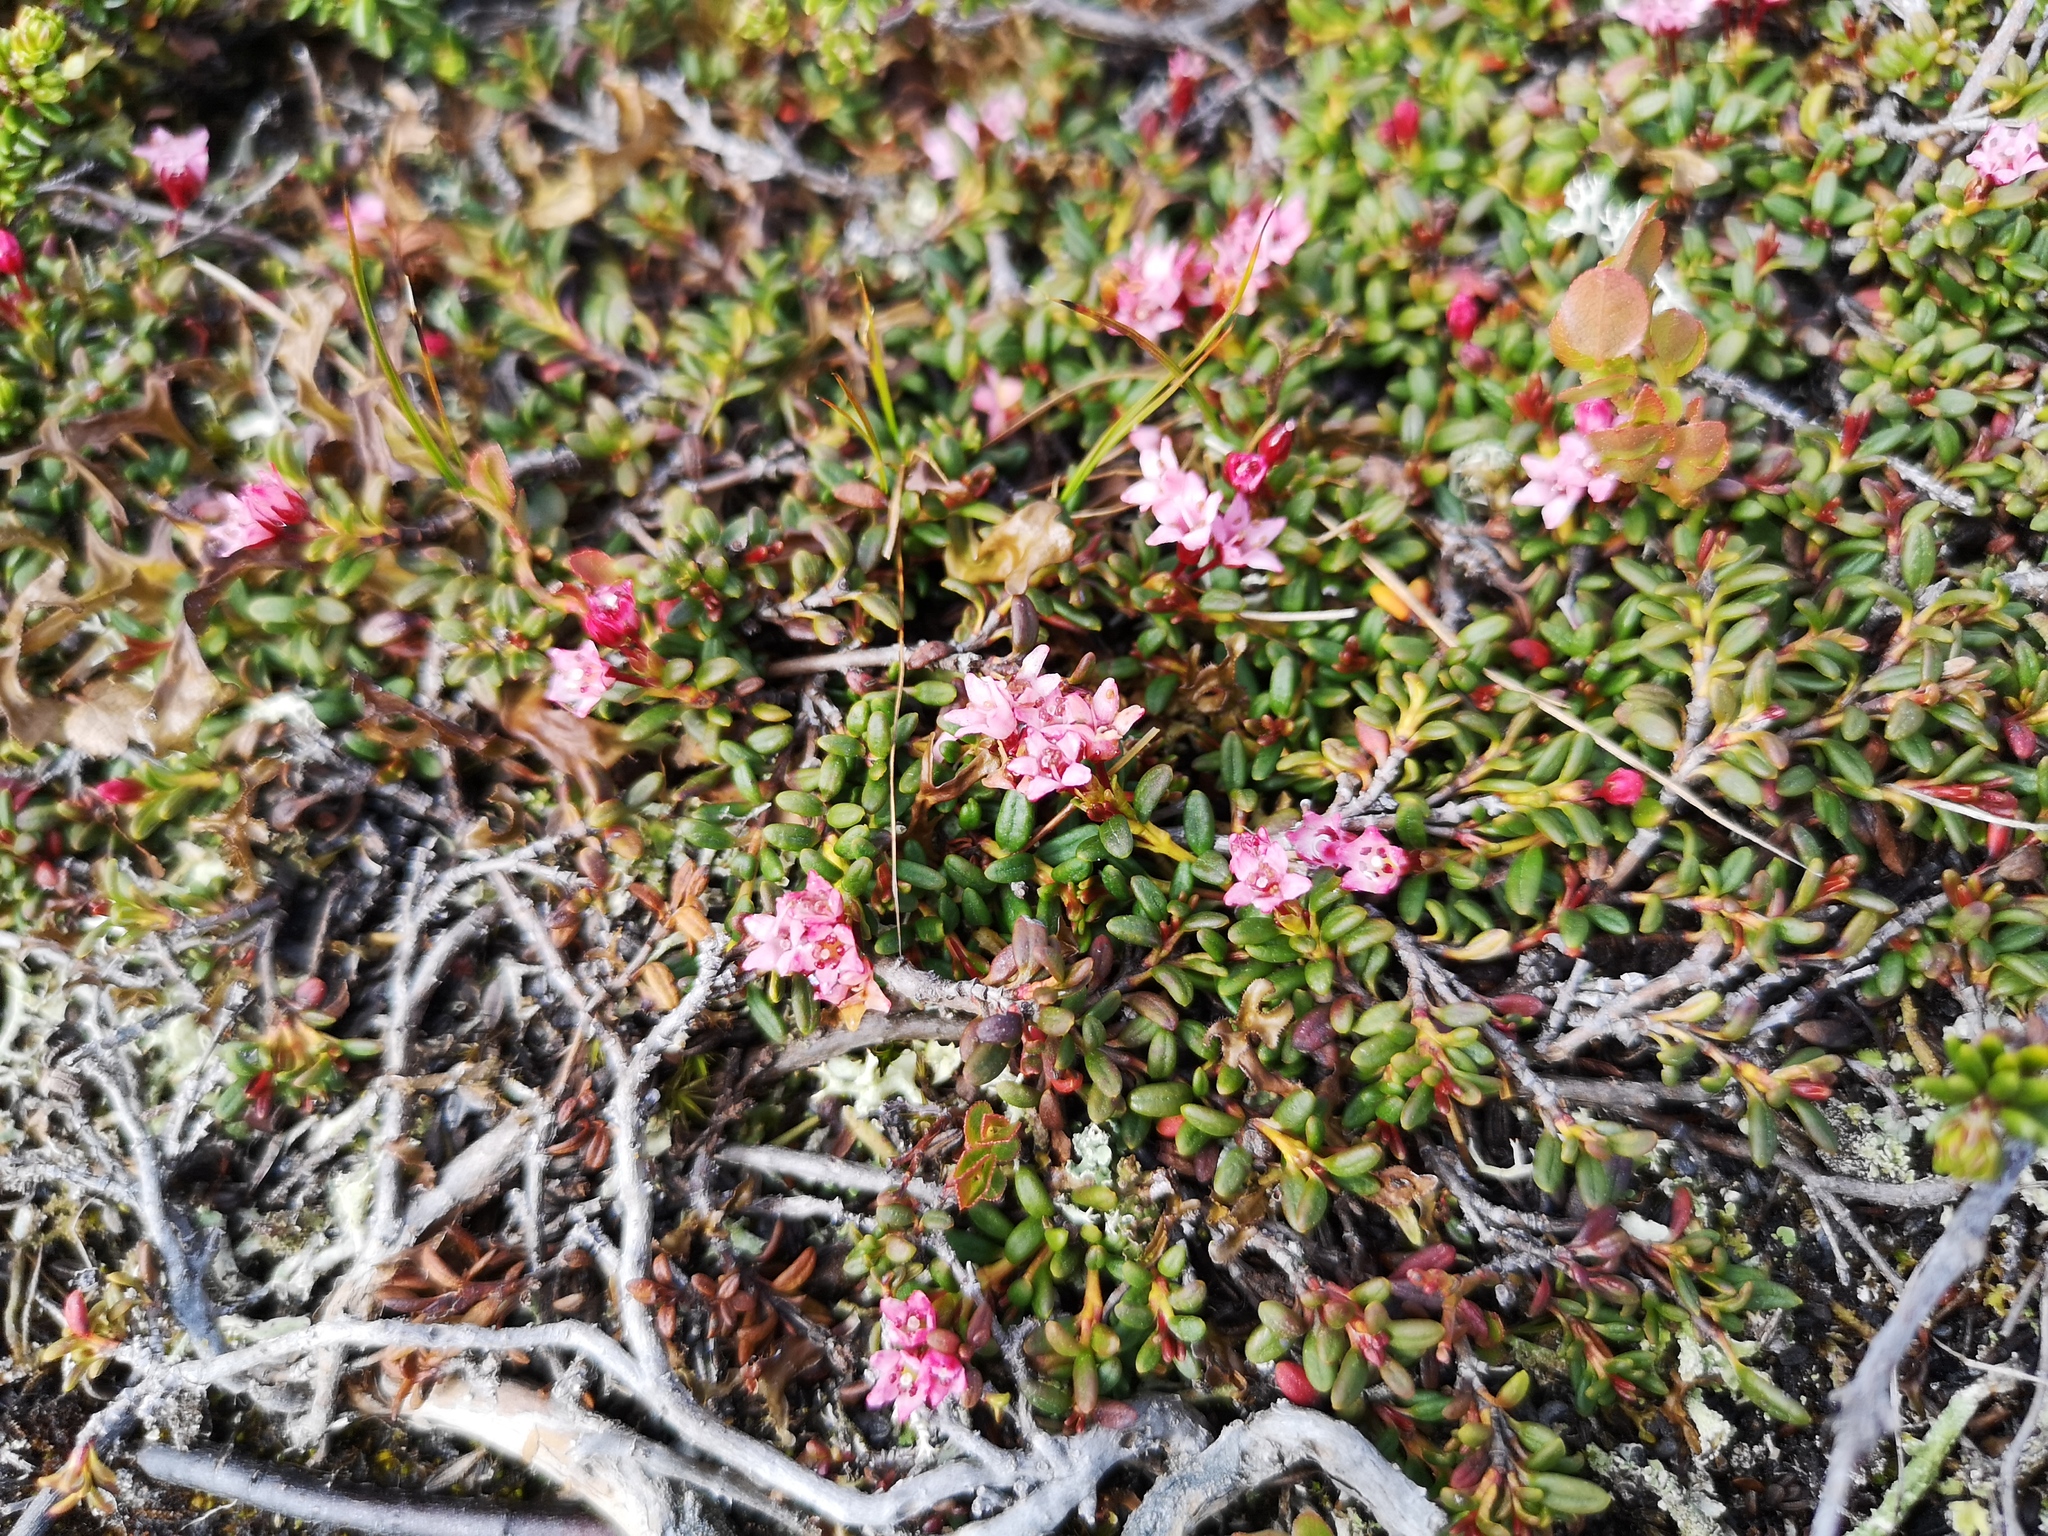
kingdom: Plantae
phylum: Tracheophyta
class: Magnoliopsida
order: Ericales
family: Ericaceae
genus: Kalmia
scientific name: Kalmia procumbens
